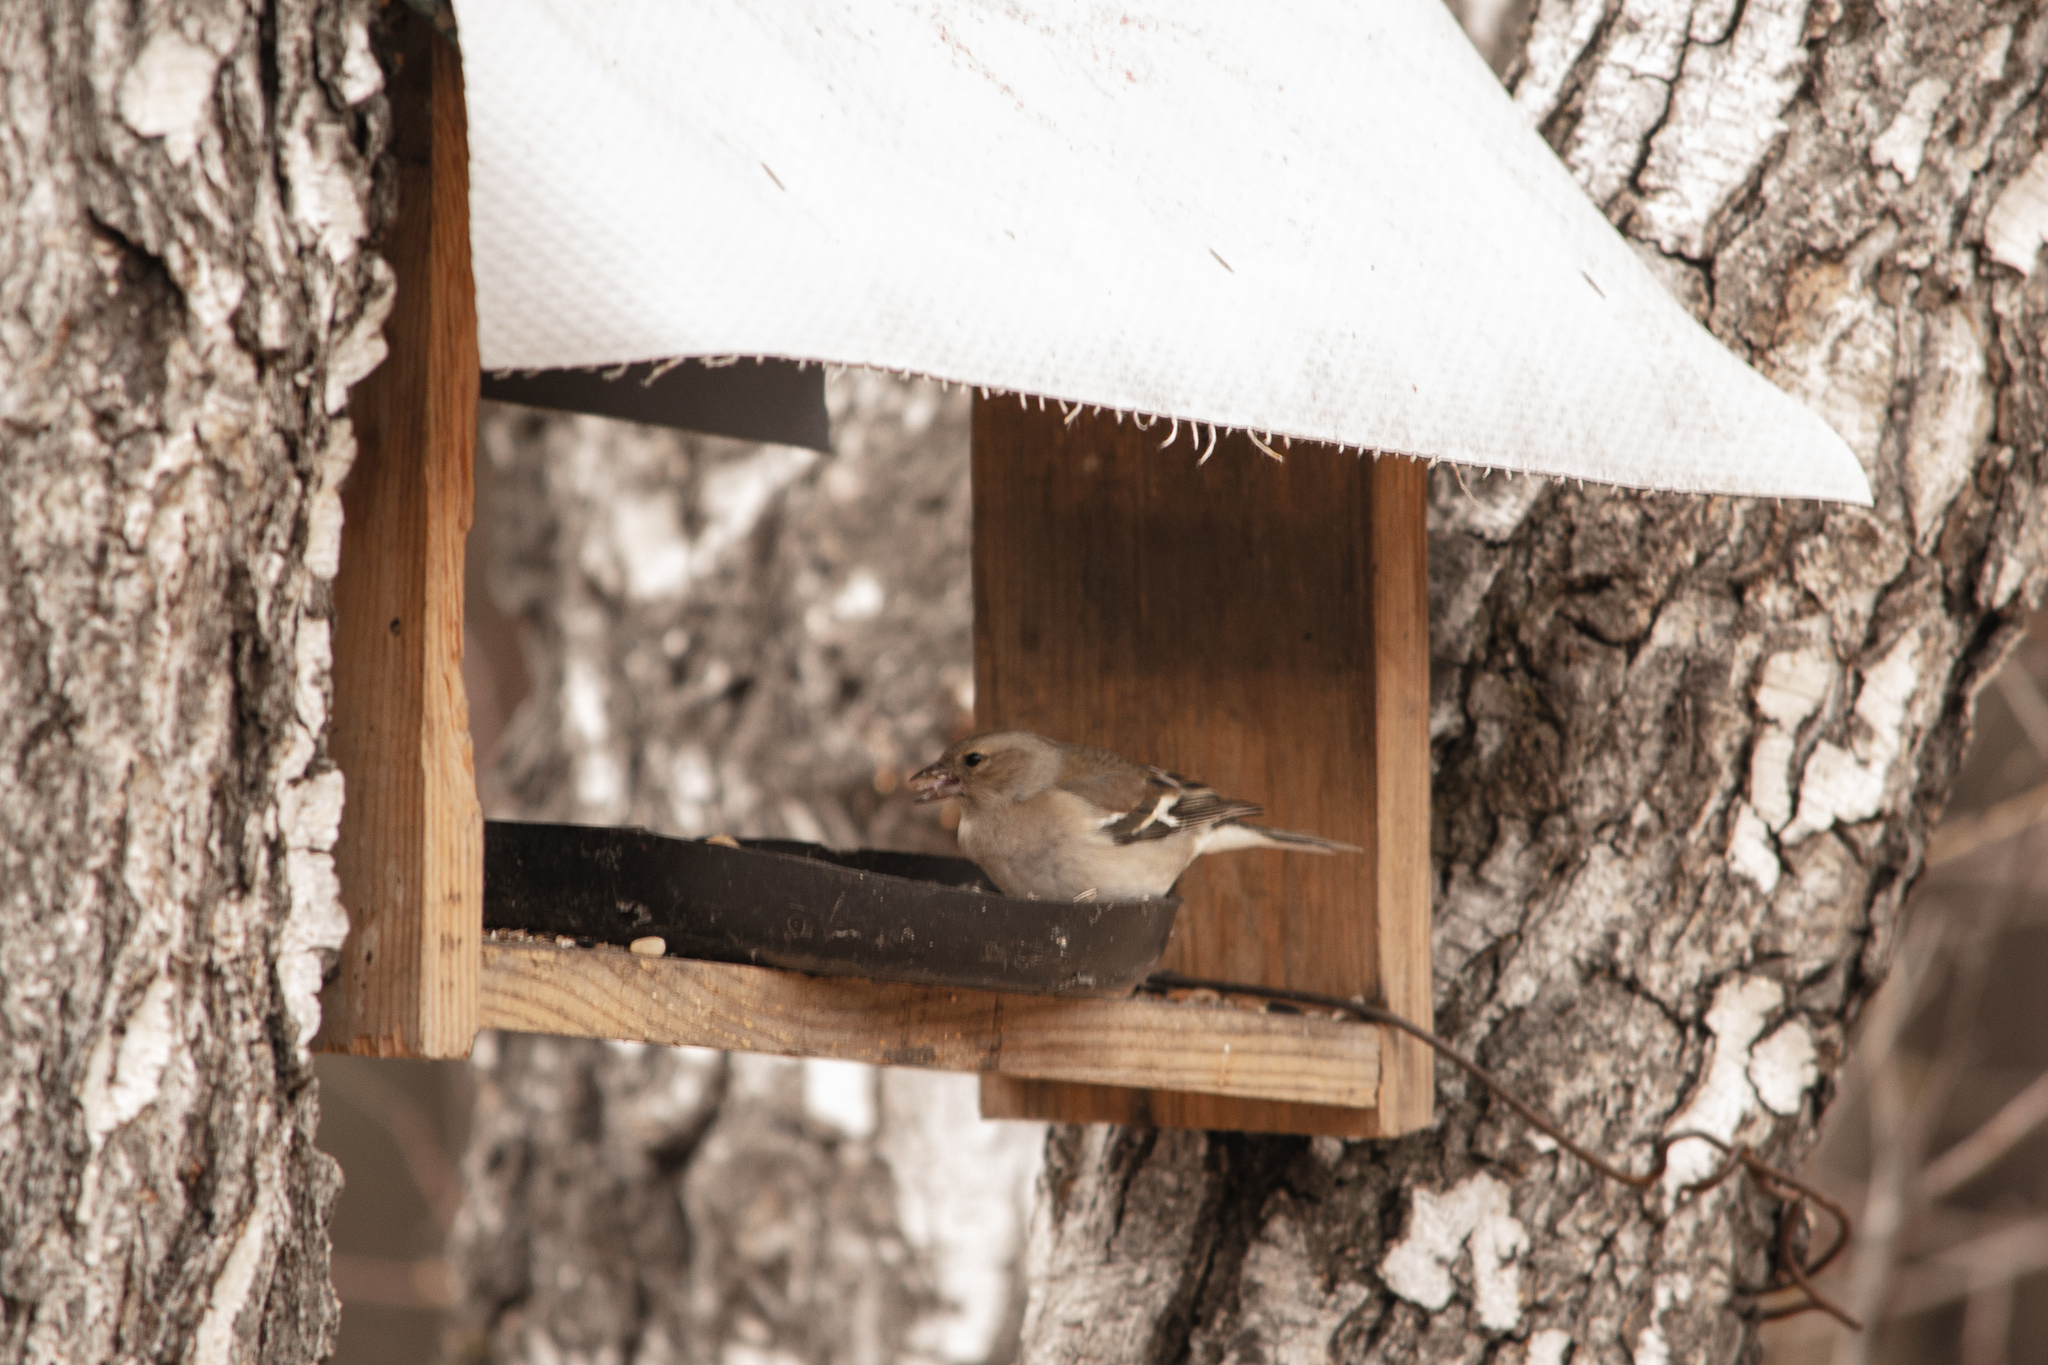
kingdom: Animalia
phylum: Chordata
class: Aves
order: Passeriformes
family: Fringillidae
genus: Fringilla
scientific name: Fringilla coelebs
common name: Common chaffinch
